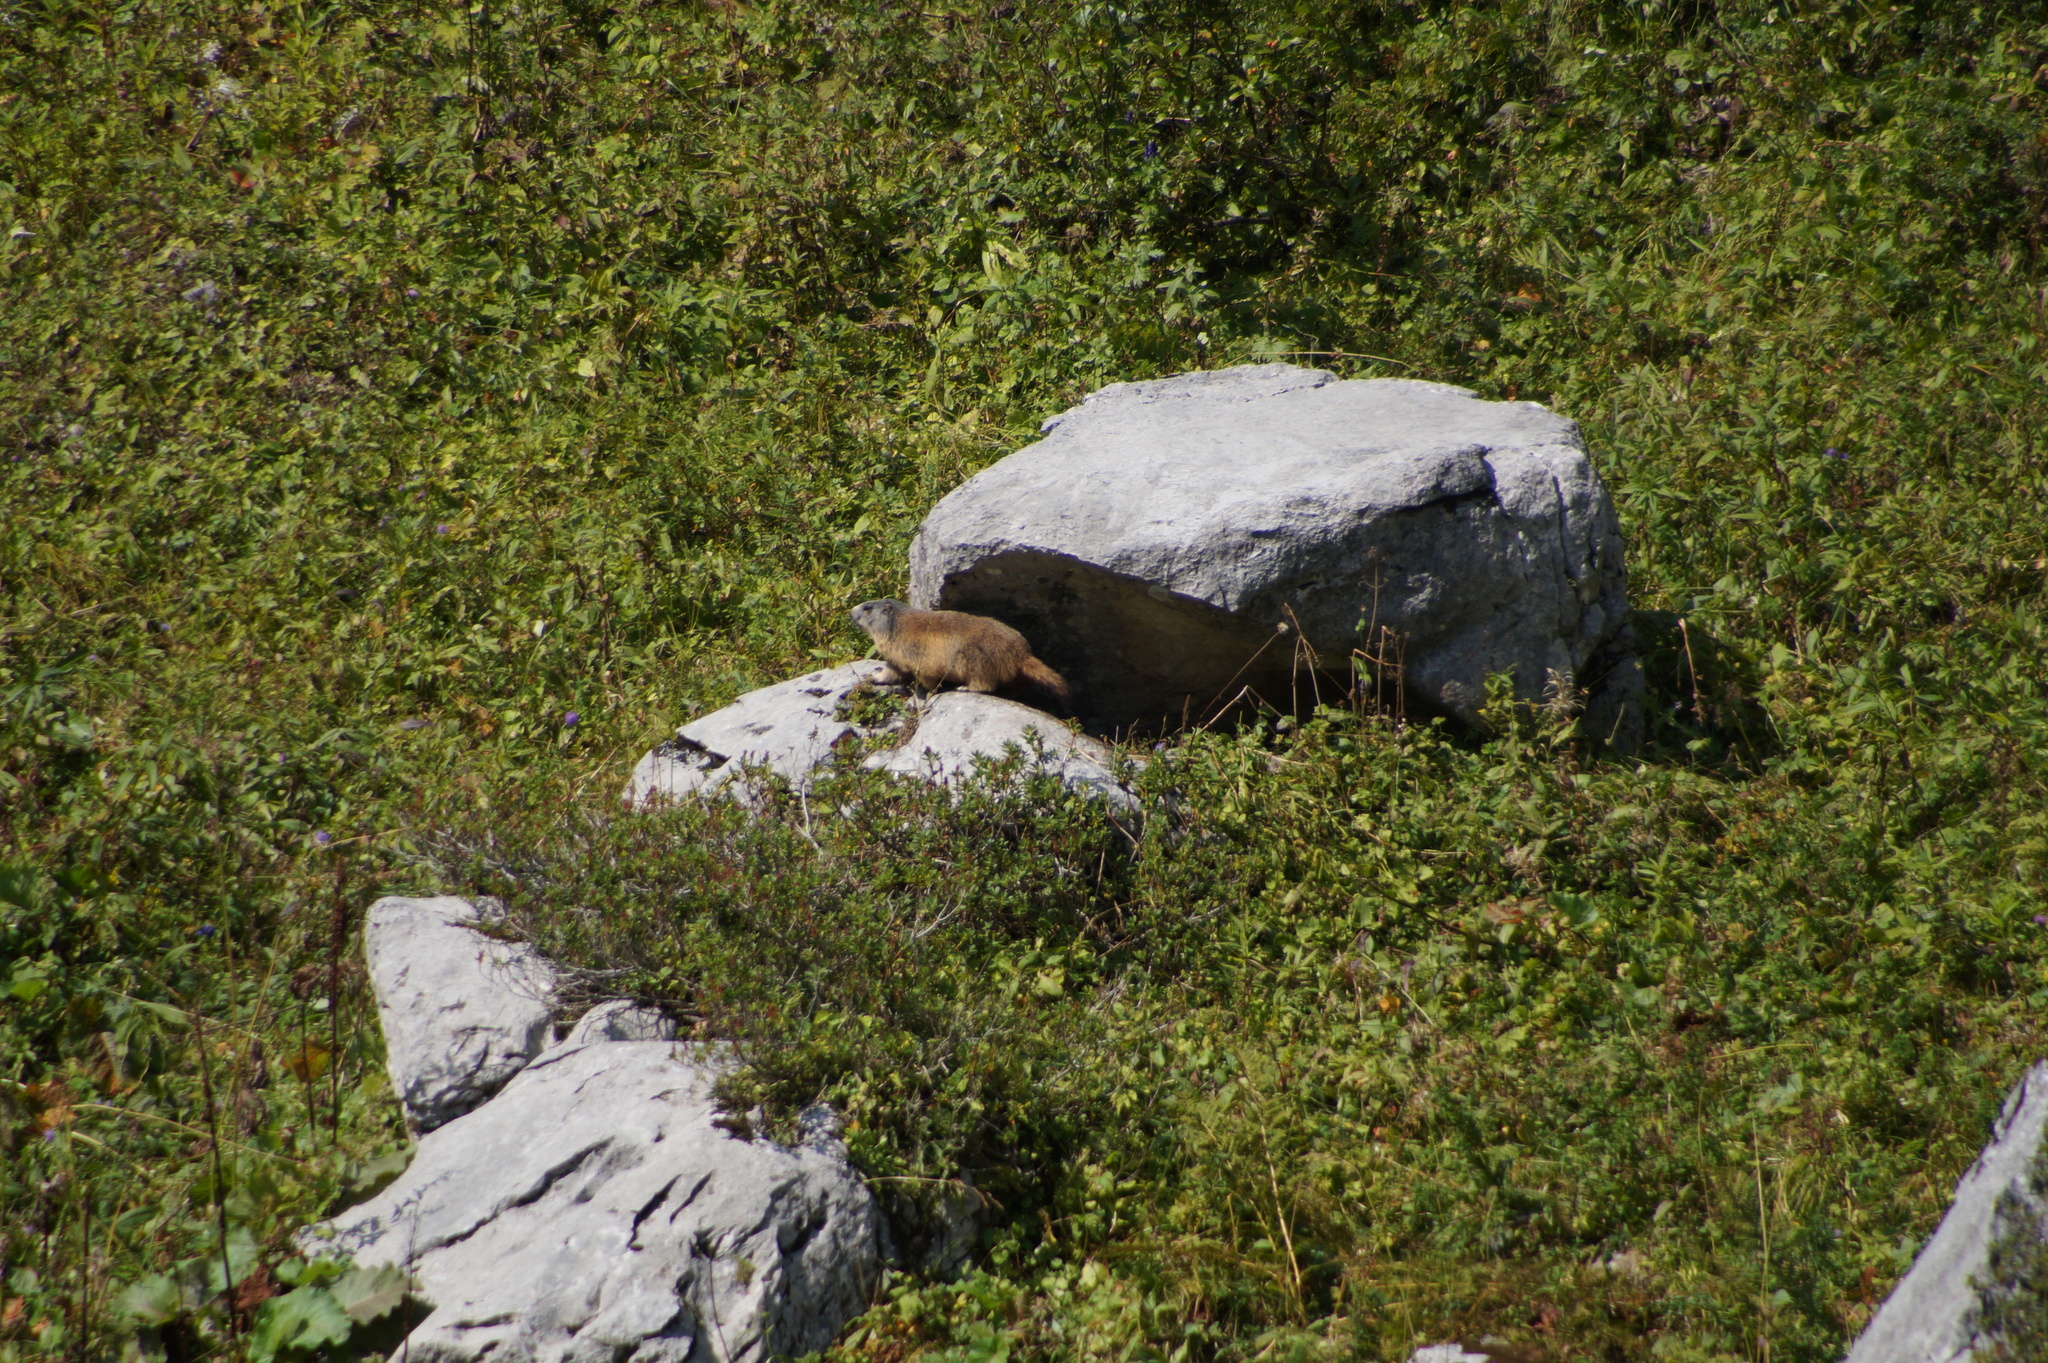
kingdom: Animalia
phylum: Chordata
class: Mammalia
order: Rodentia
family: Sciuridae
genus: Marmota
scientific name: Marmota marmota
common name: Alpine marmot
